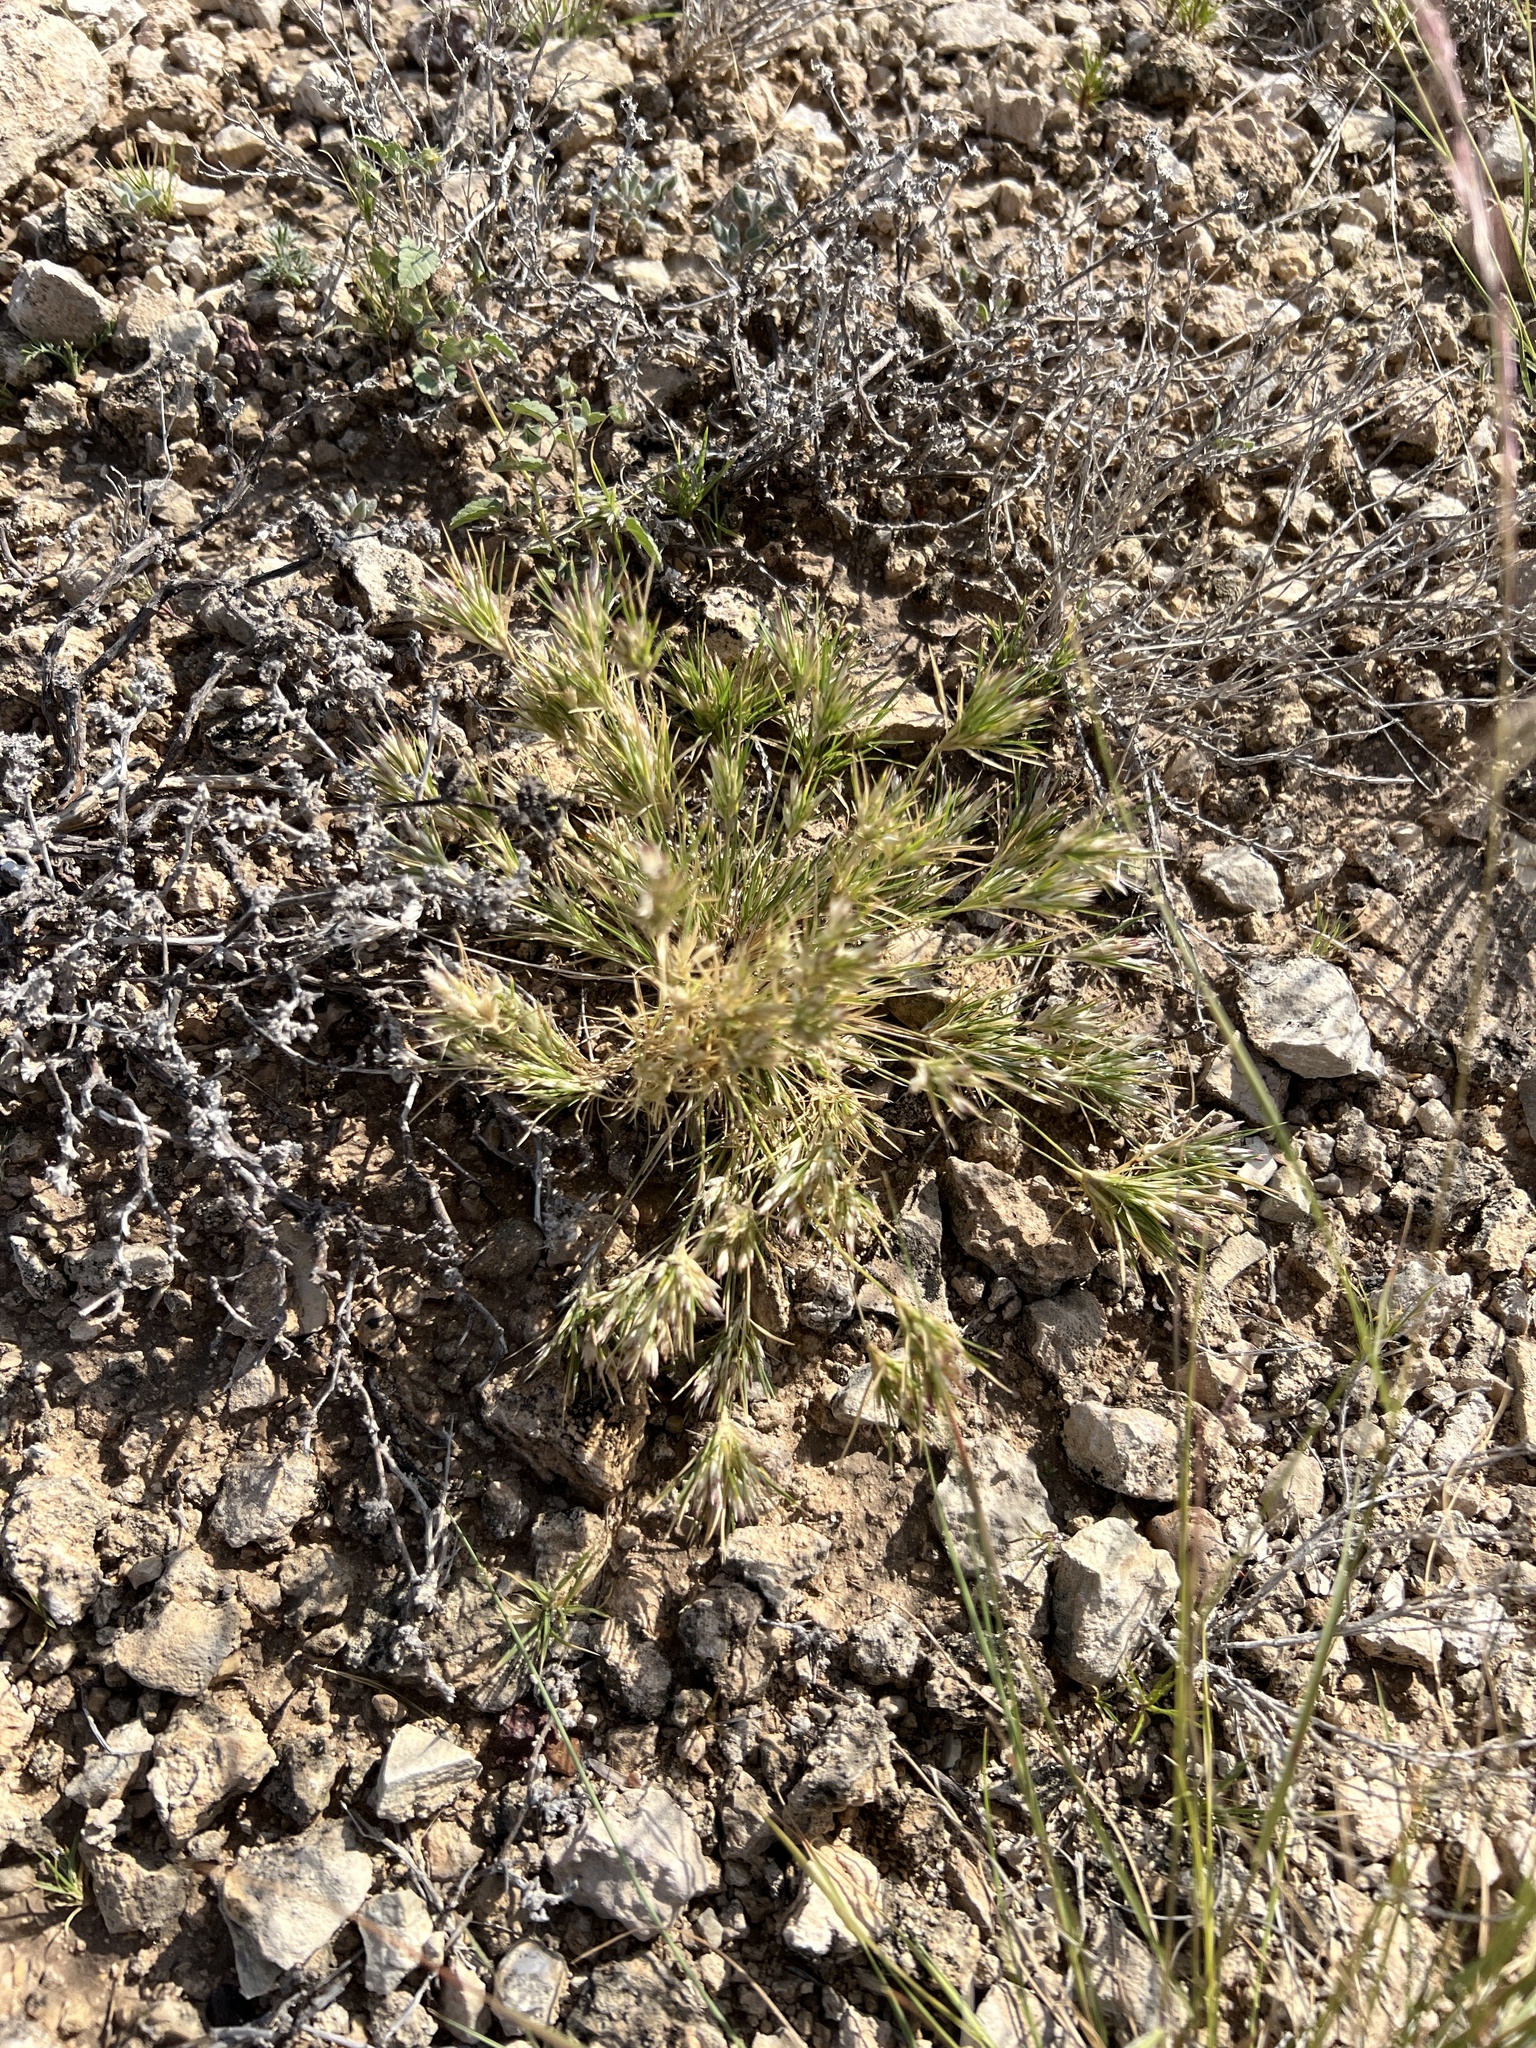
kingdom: Plantae
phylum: Tracheophyta
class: Liliopsida
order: Poales
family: Poaceae
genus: Dasyochloa
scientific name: Dasyochloa pulchella
